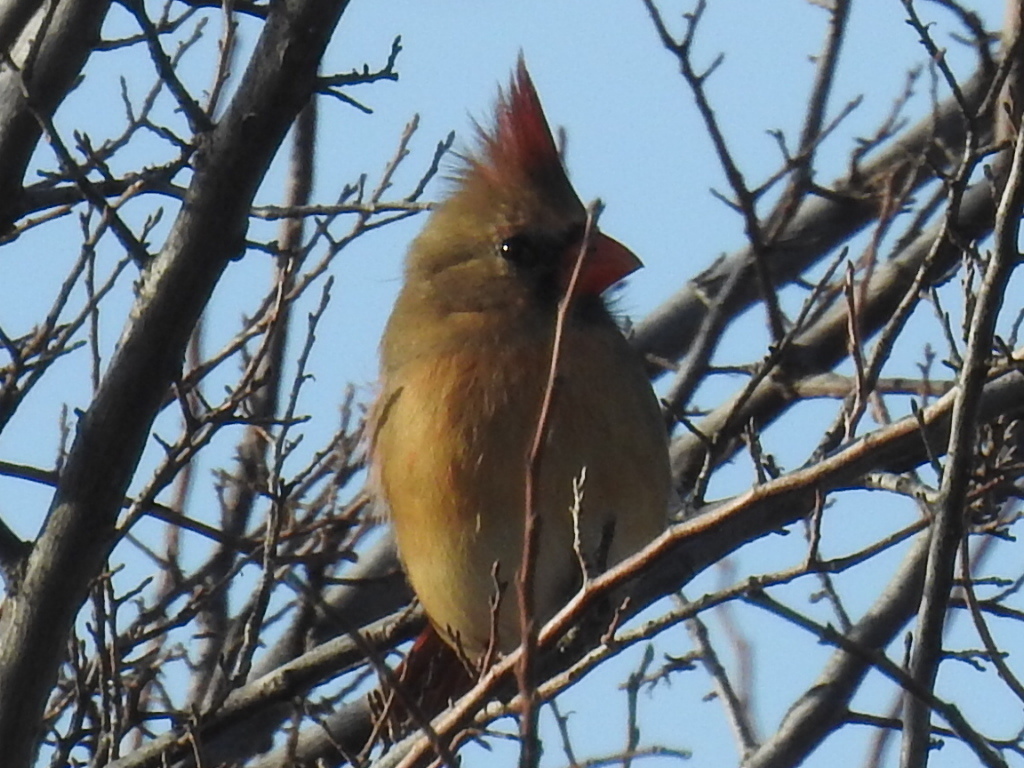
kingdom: Animalia
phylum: Chordata
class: Aves
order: Passeriformes
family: Cardinalidae
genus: Cardinalis
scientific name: Cardinalis cardinalis
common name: Northern cardinal
